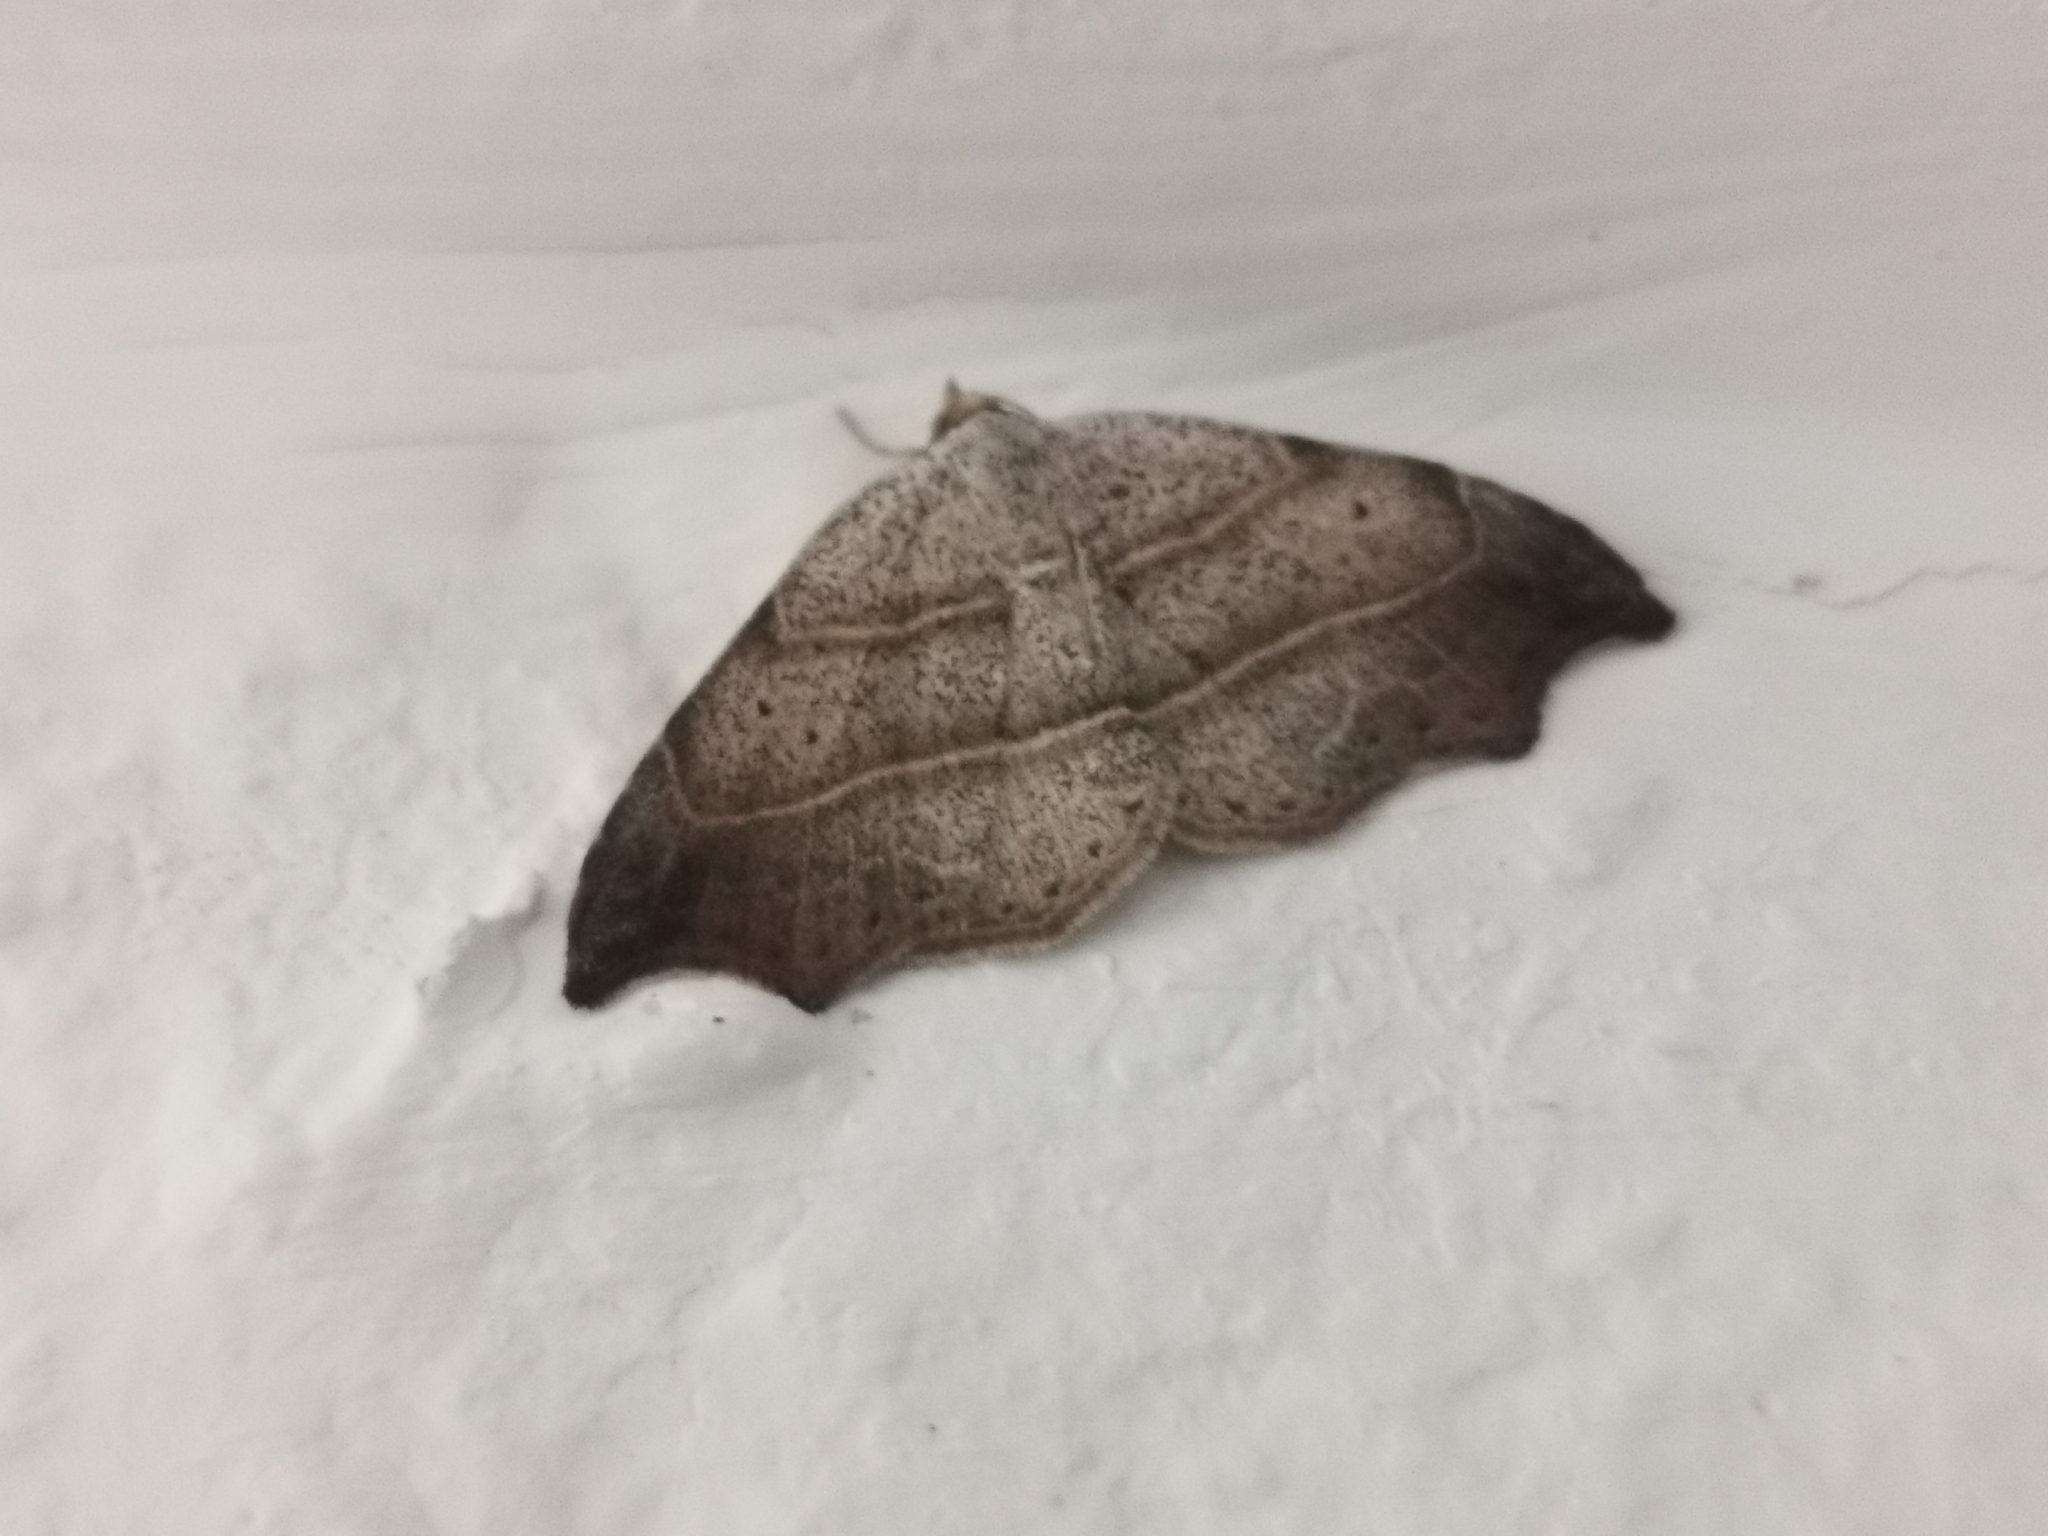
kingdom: Animalia
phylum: Arthropoda
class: Insecta
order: Lepidoptera
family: Erebidae
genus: Laspeyria
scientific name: Laspeyria flexula
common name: Beautiful hook-tip
